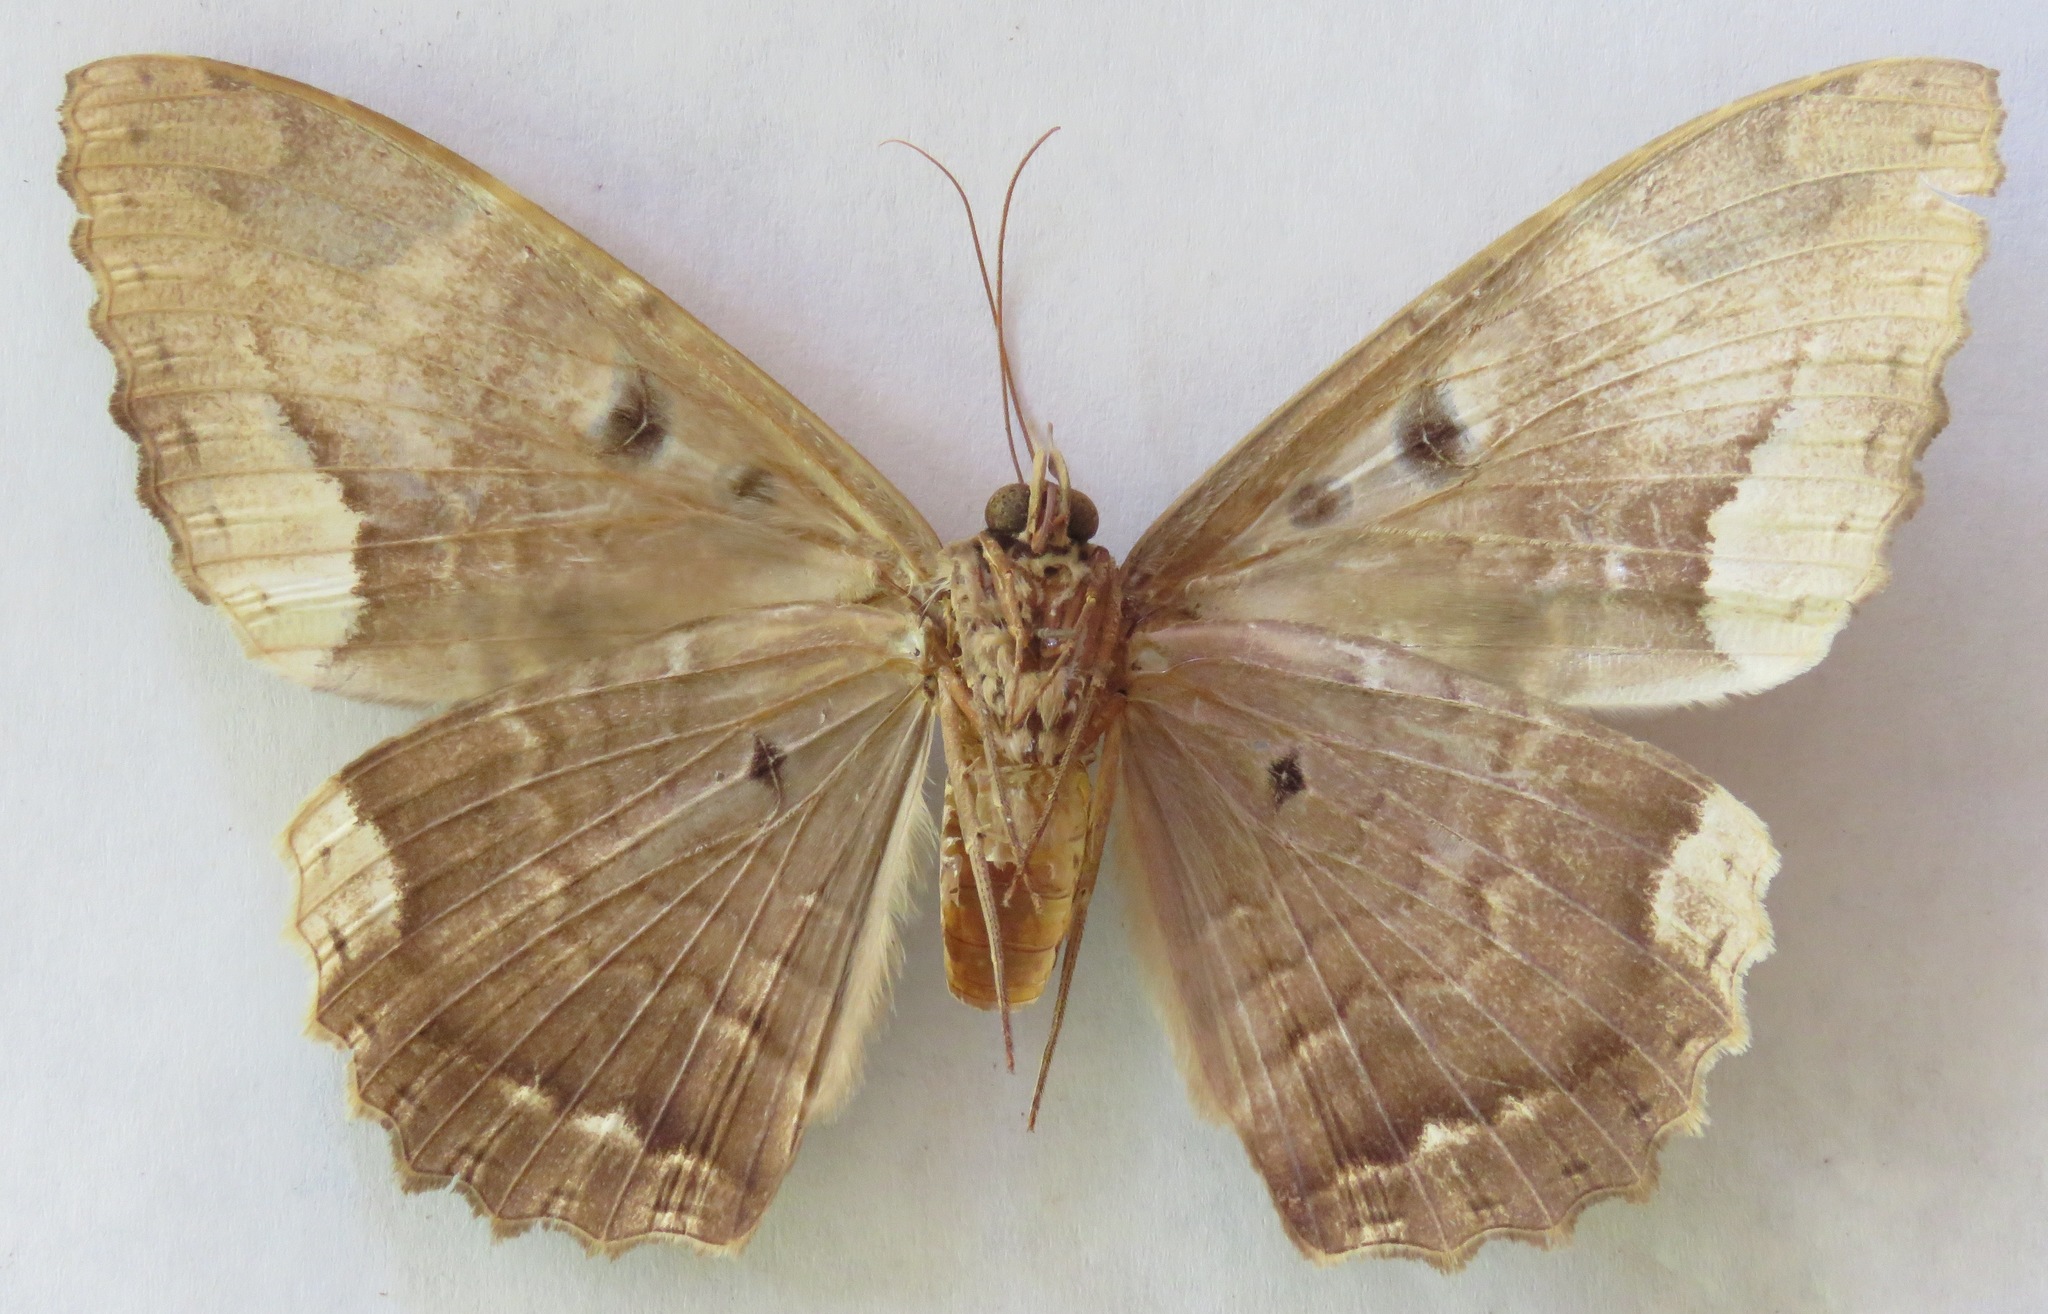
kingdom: Animalia
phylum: Arthropoda
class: Insecta
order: Lepidoptera
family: Erebidae
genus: Feigeria
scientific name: Feigeria herilia
